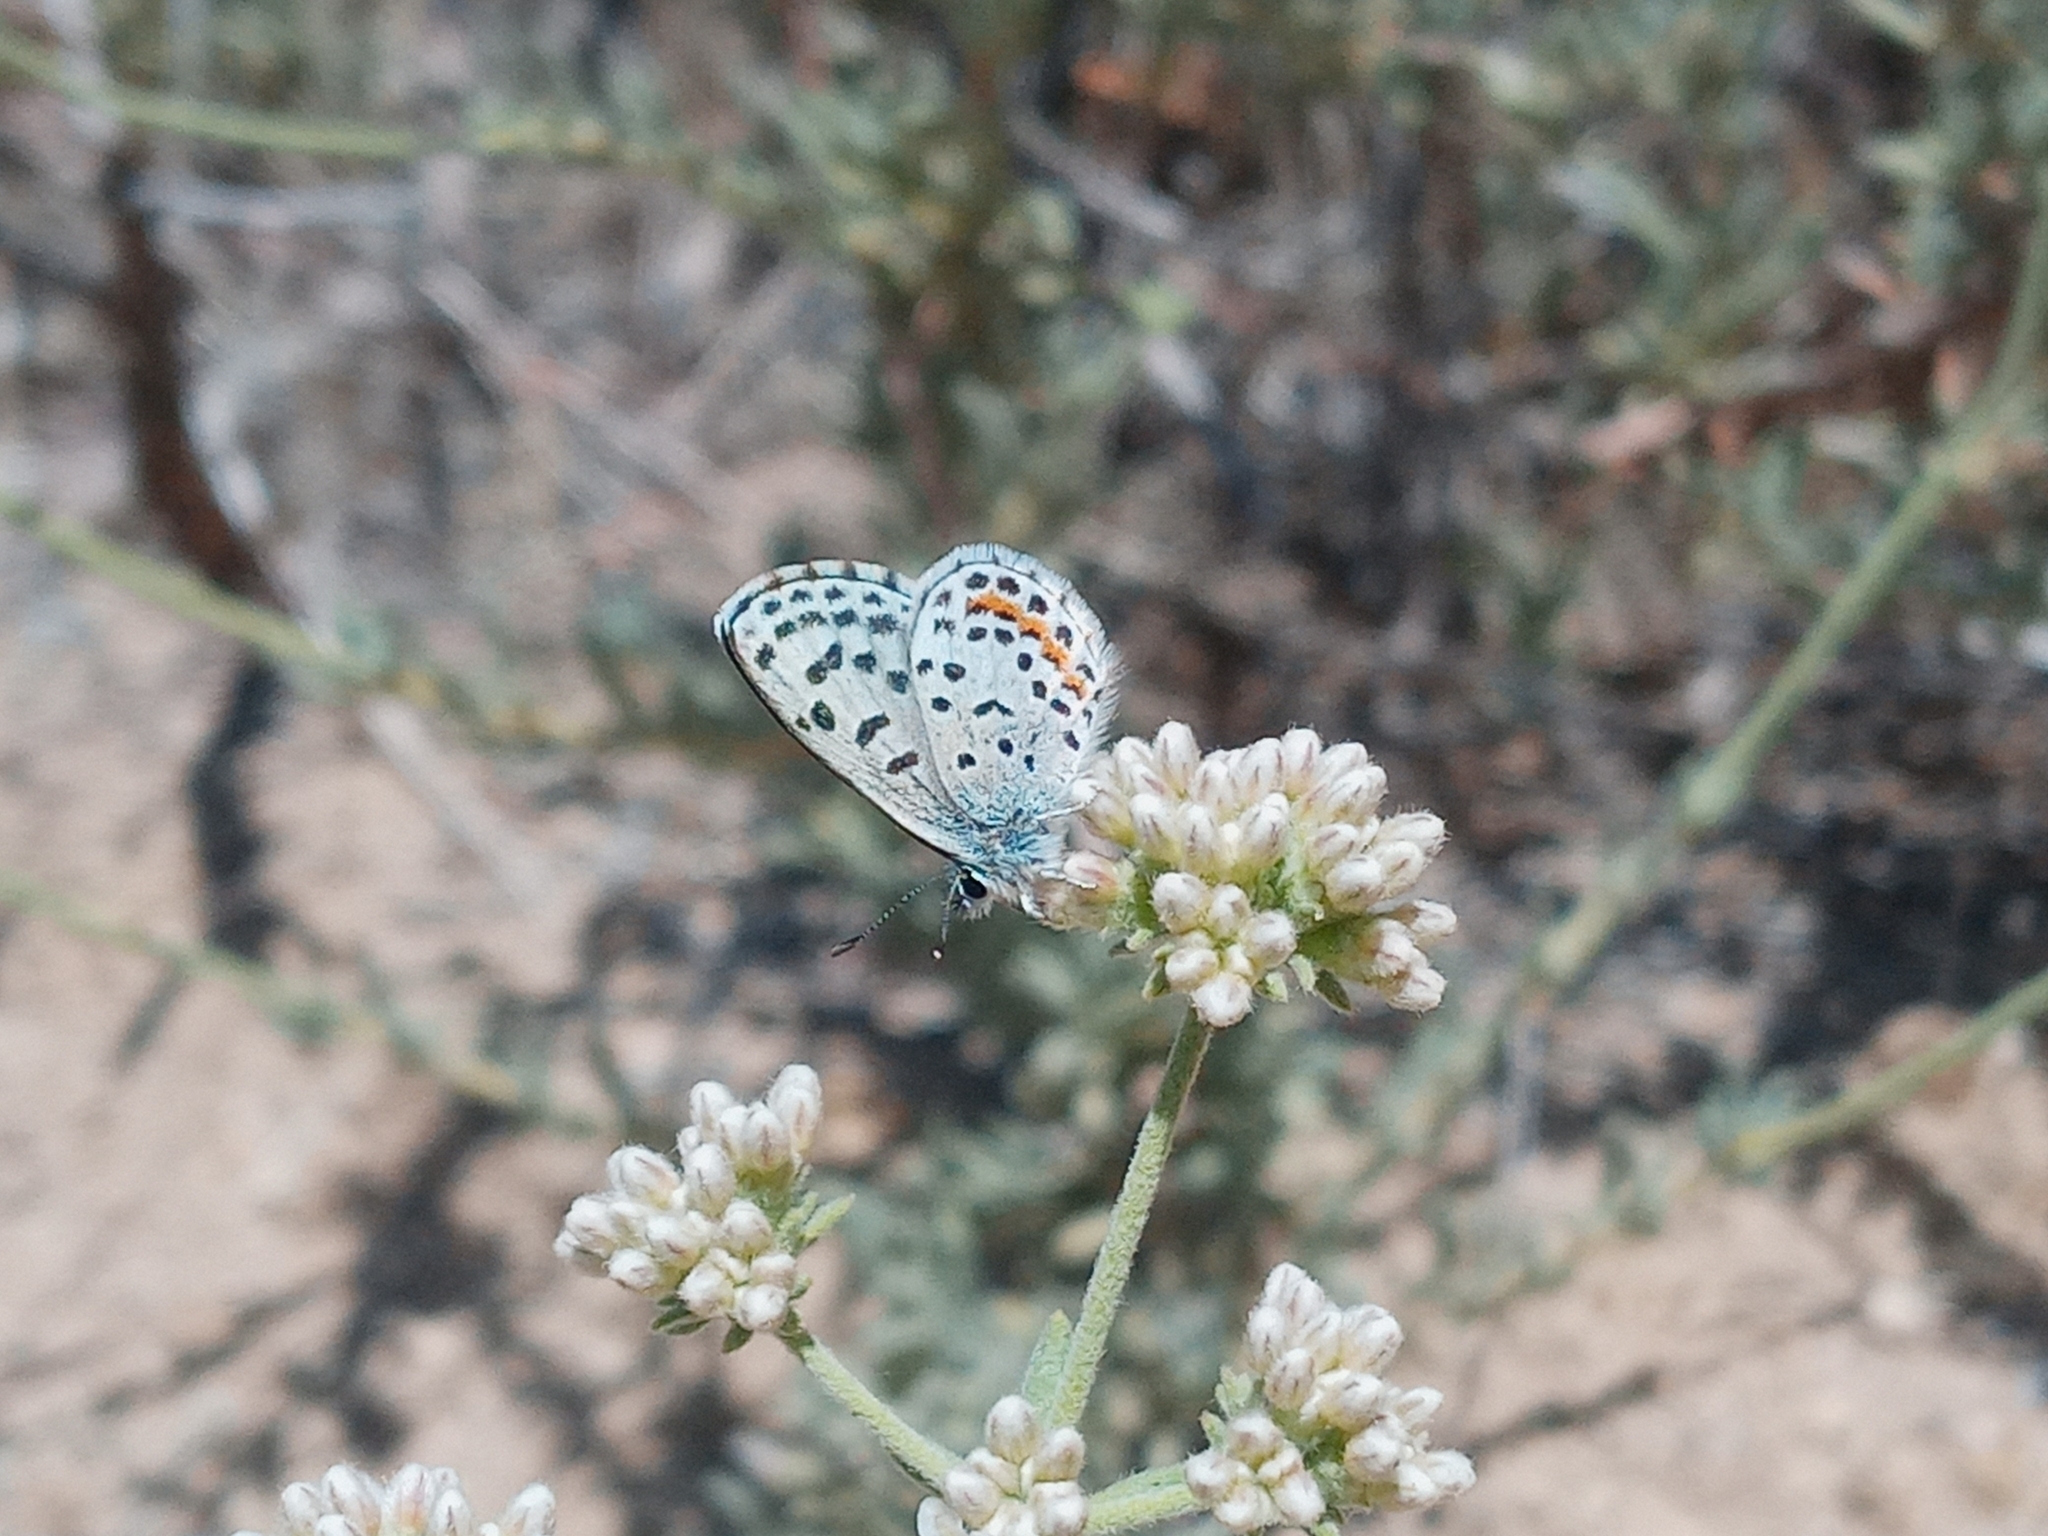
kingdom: Animalia
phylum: Arthropoda
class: Insecta
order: Lepidoptera
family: Lycaenidae
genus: Philotes
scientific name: Philotes bernardino
